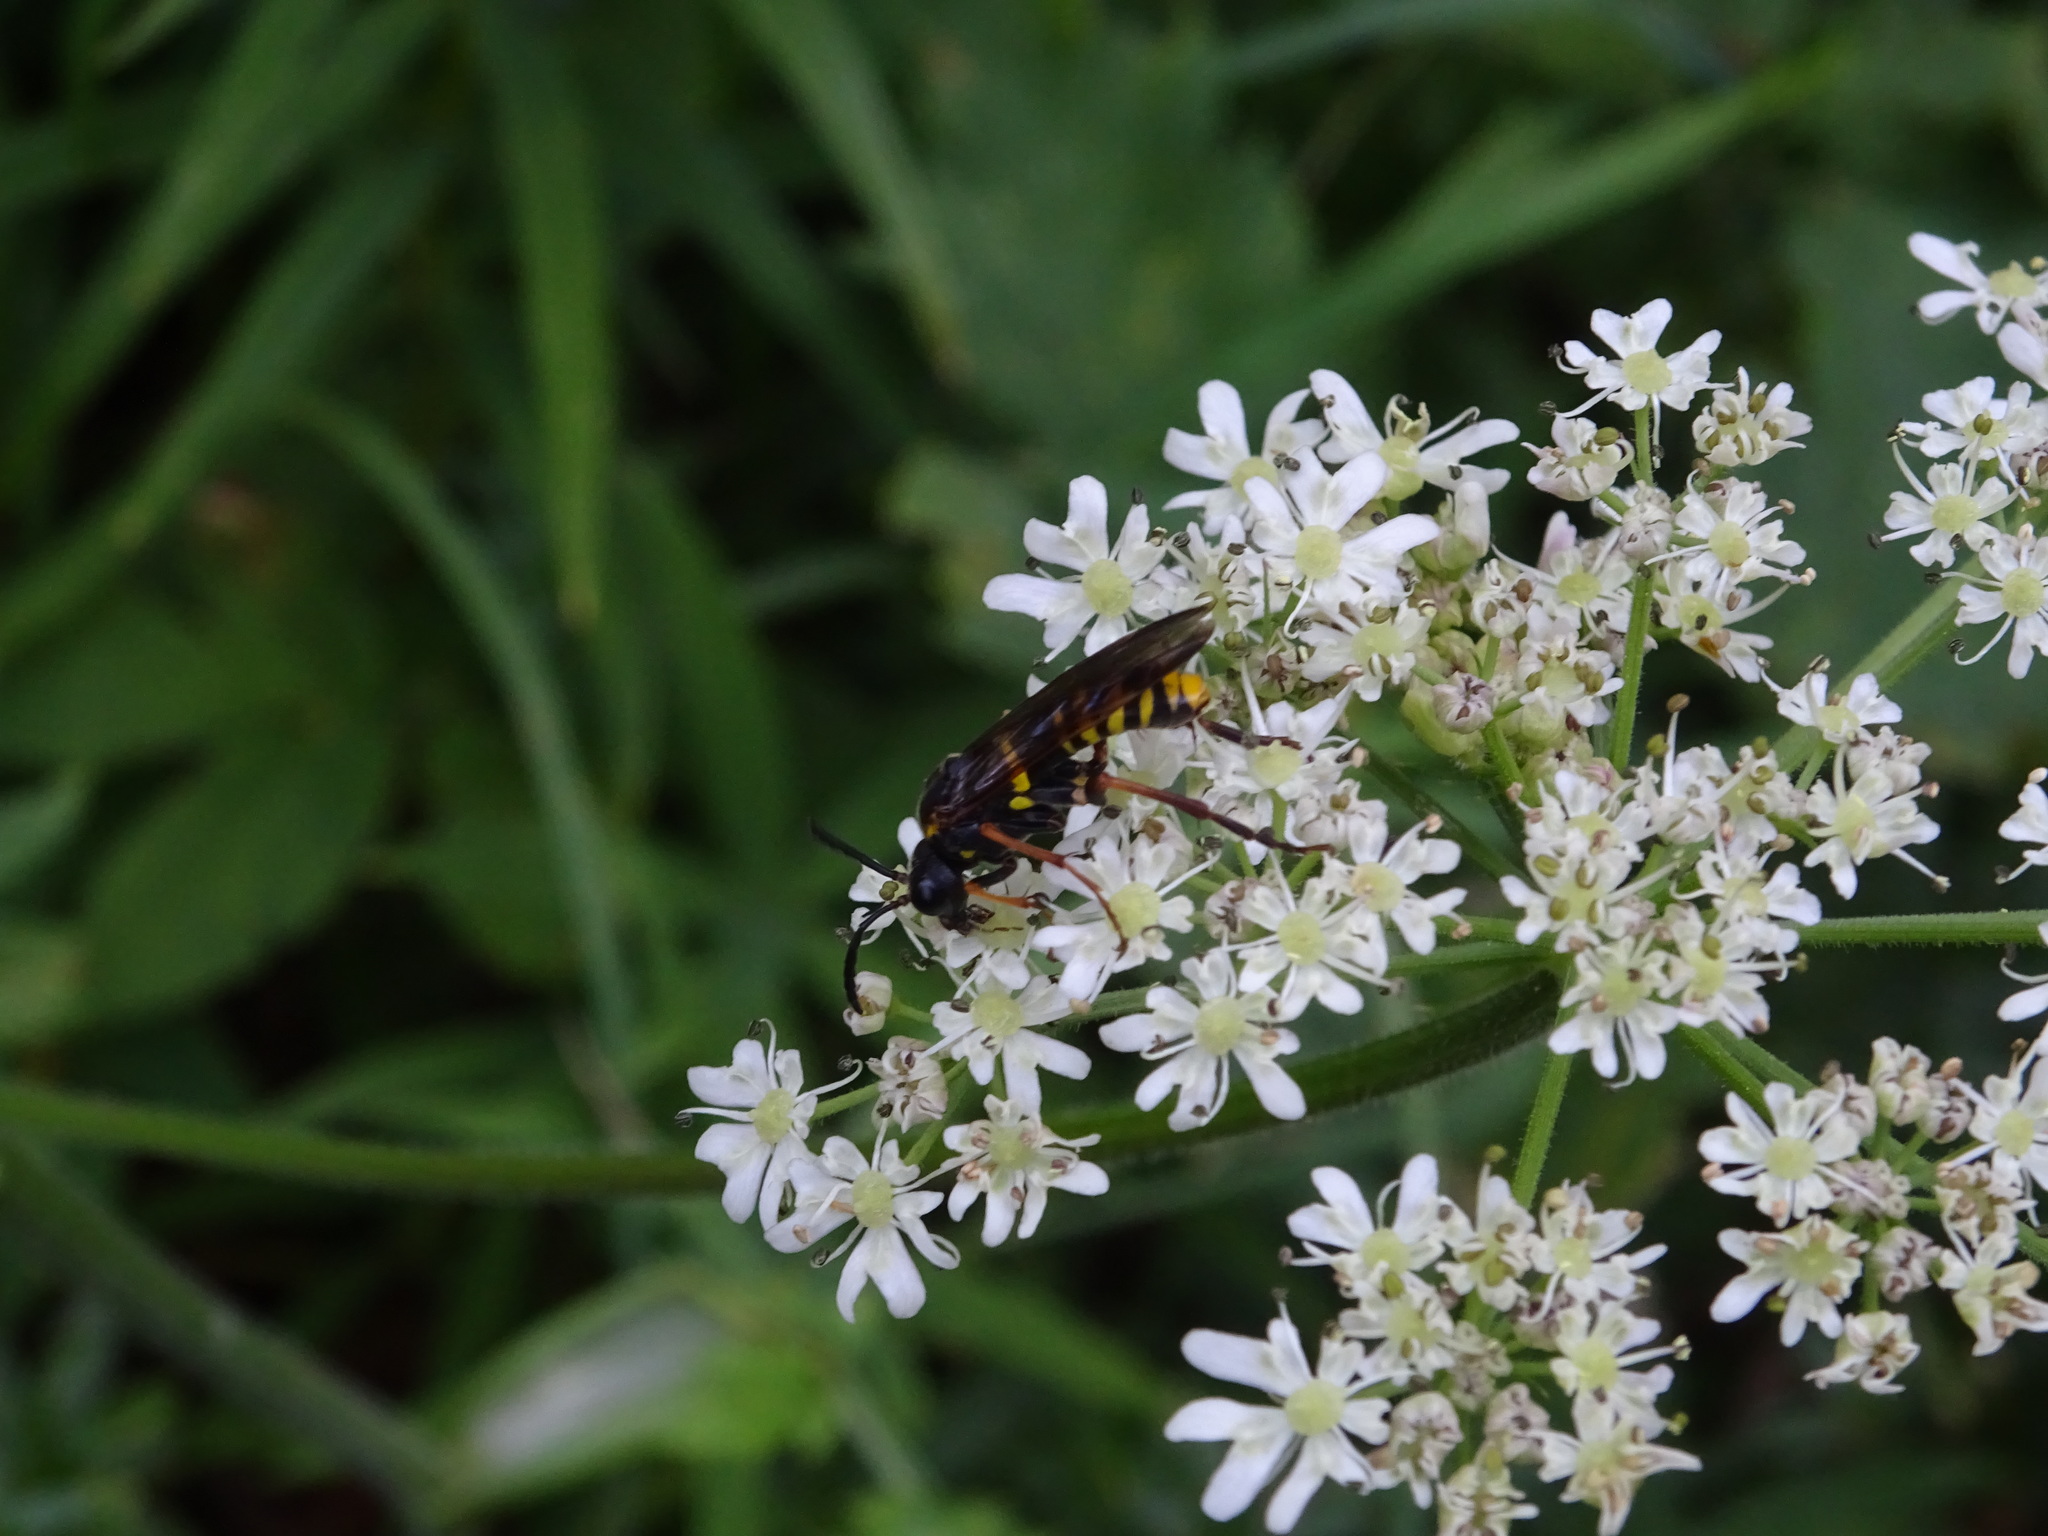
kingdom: Animalia
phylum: Arthropoda
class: Insecta
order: Hymenoptera
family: Tenthredinidae
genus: Tenthredo
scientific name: Tenthredo vespa
